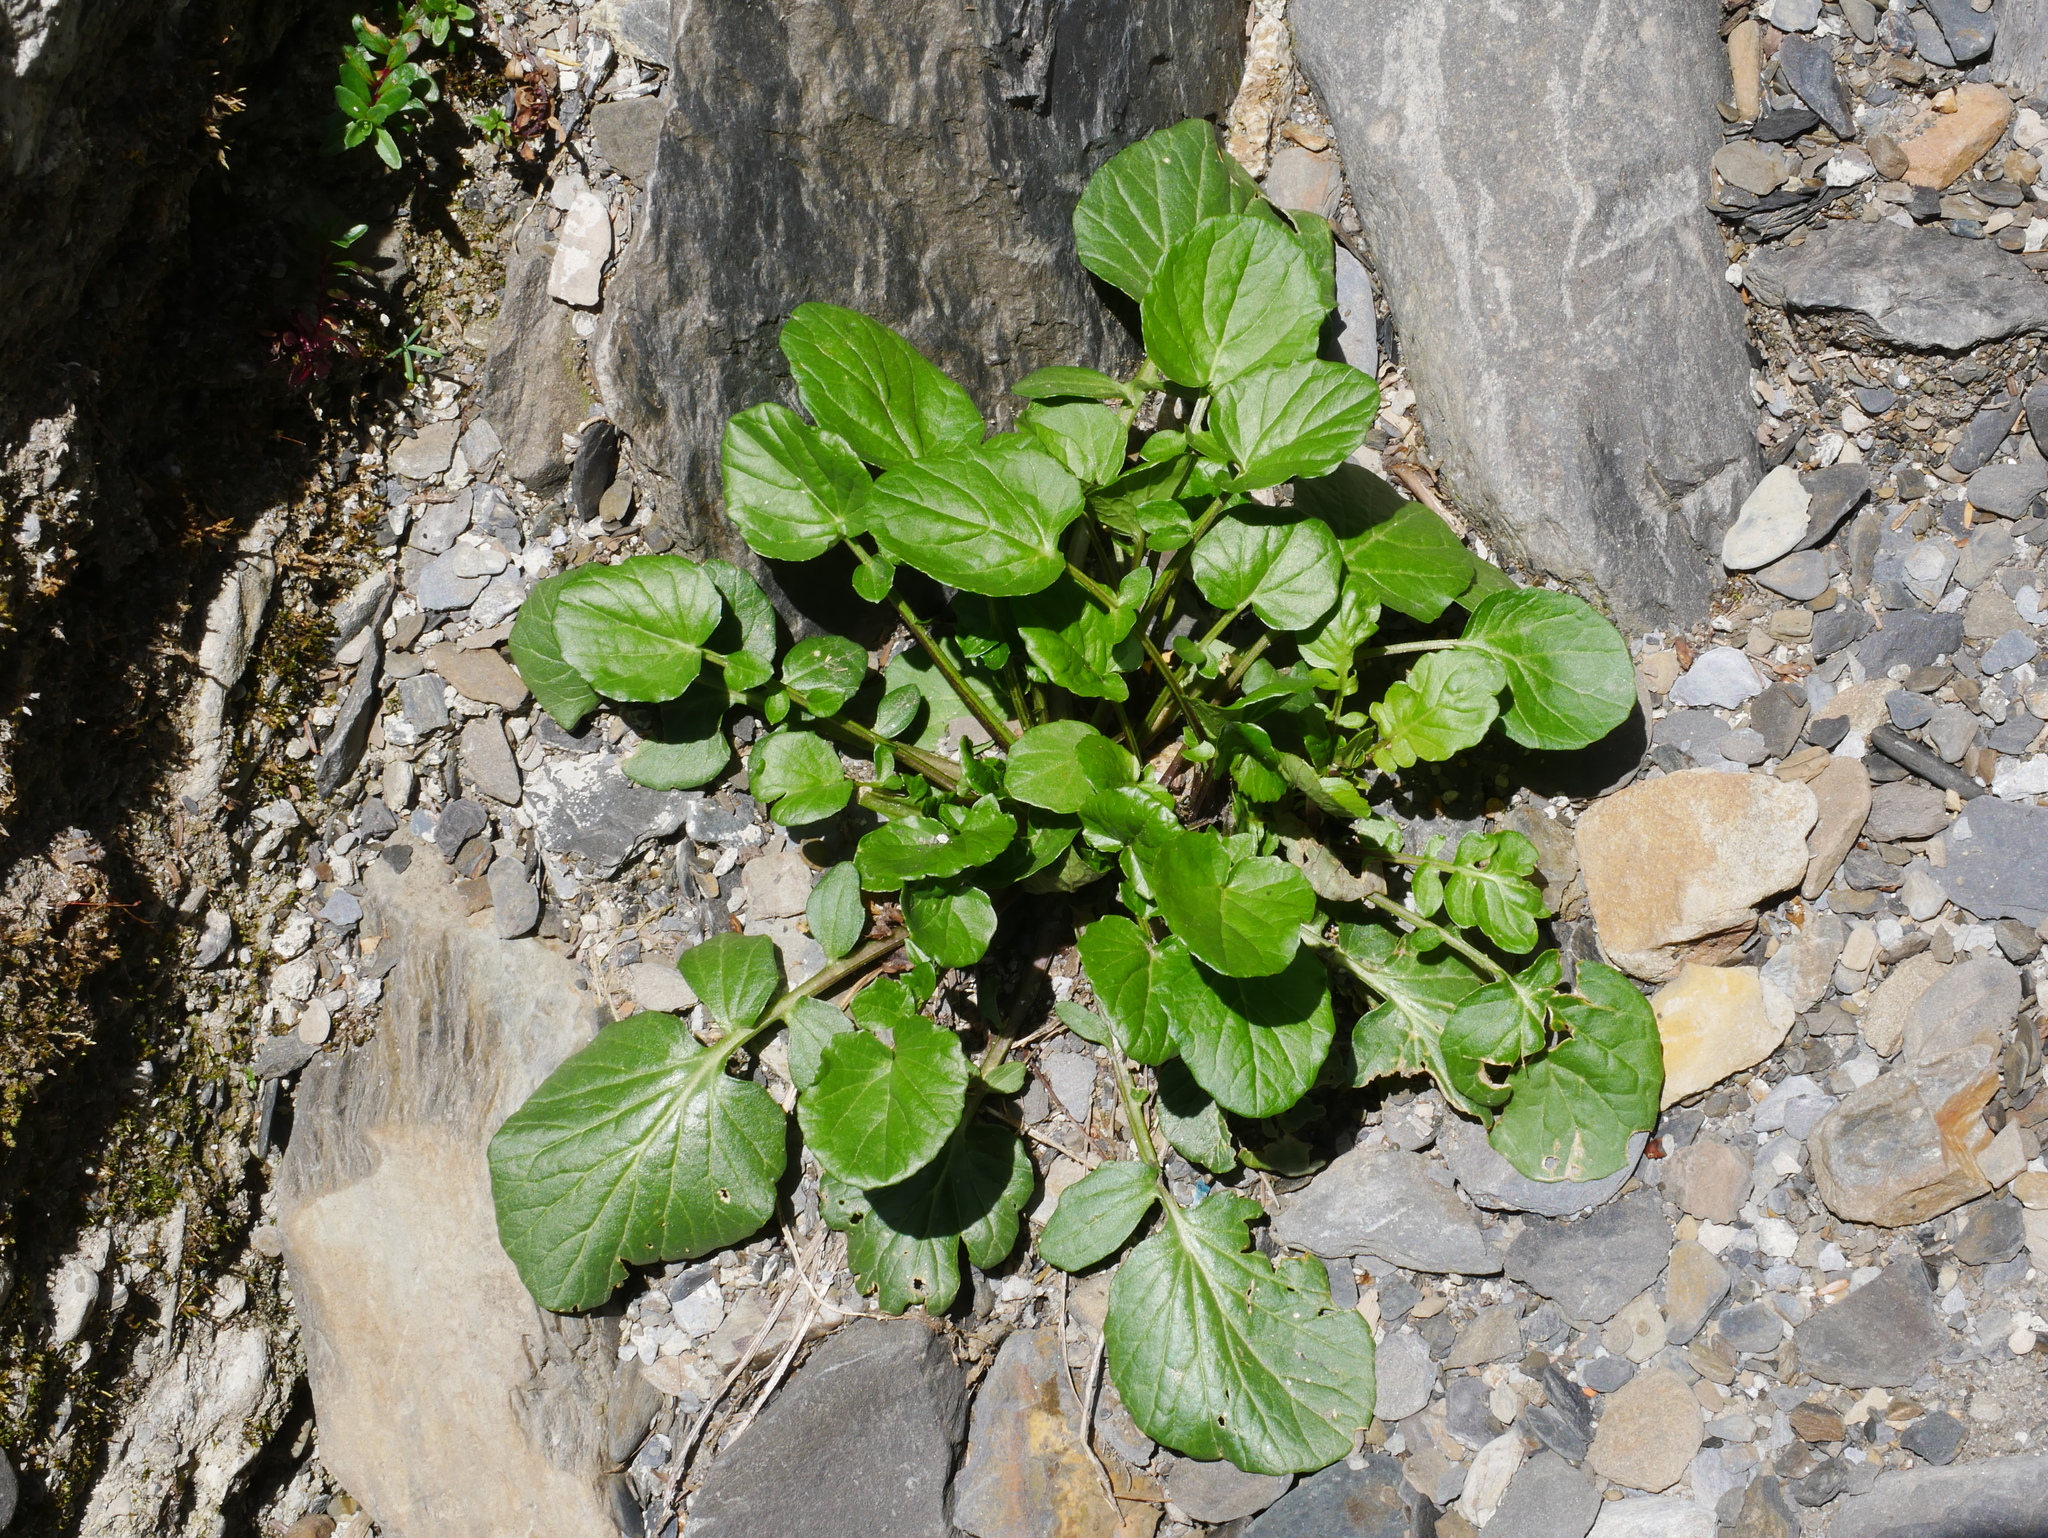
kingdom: Plantae
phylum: Tracheophyta
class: Magnoliopsida
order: Brassicales
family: Brassicaceae
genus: Barbarea
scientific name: Barbarea orthoceras
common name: American wintercress
